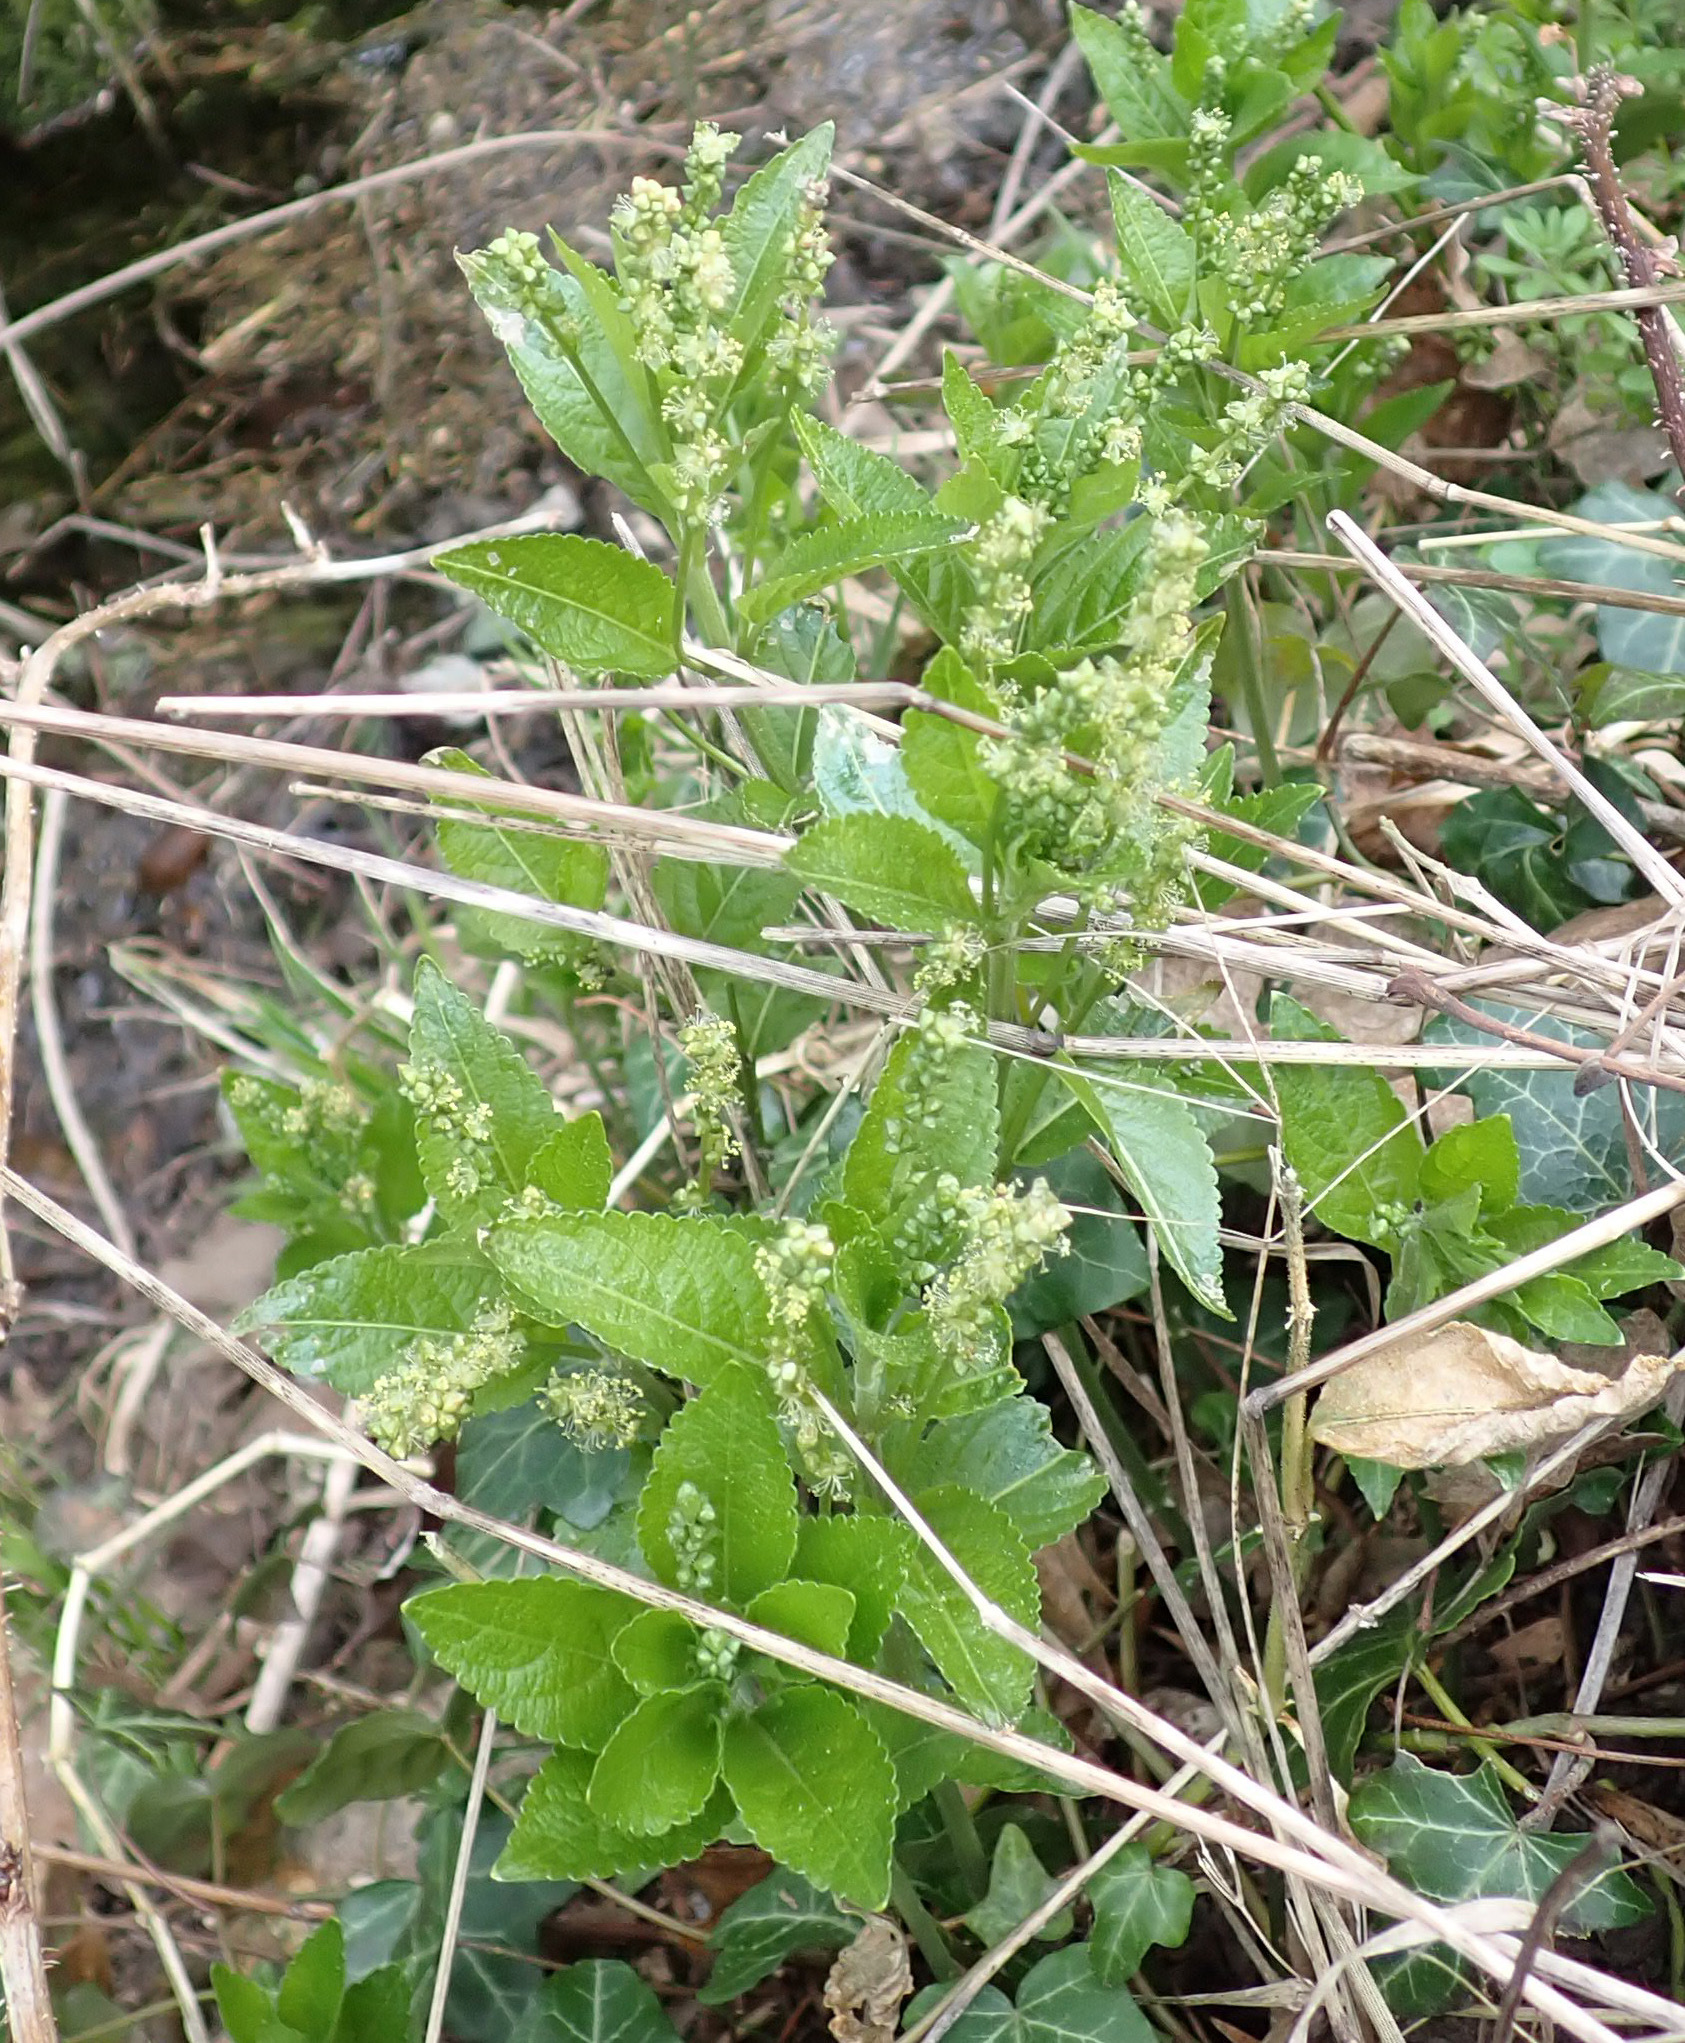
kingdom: Plantae
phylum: Tracheophyta
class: Magnoliopsida
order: Malpighiales
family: Euphorbiaceae
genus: Mercurialis
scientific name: Mercurialis perennis
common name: Dog mercury
